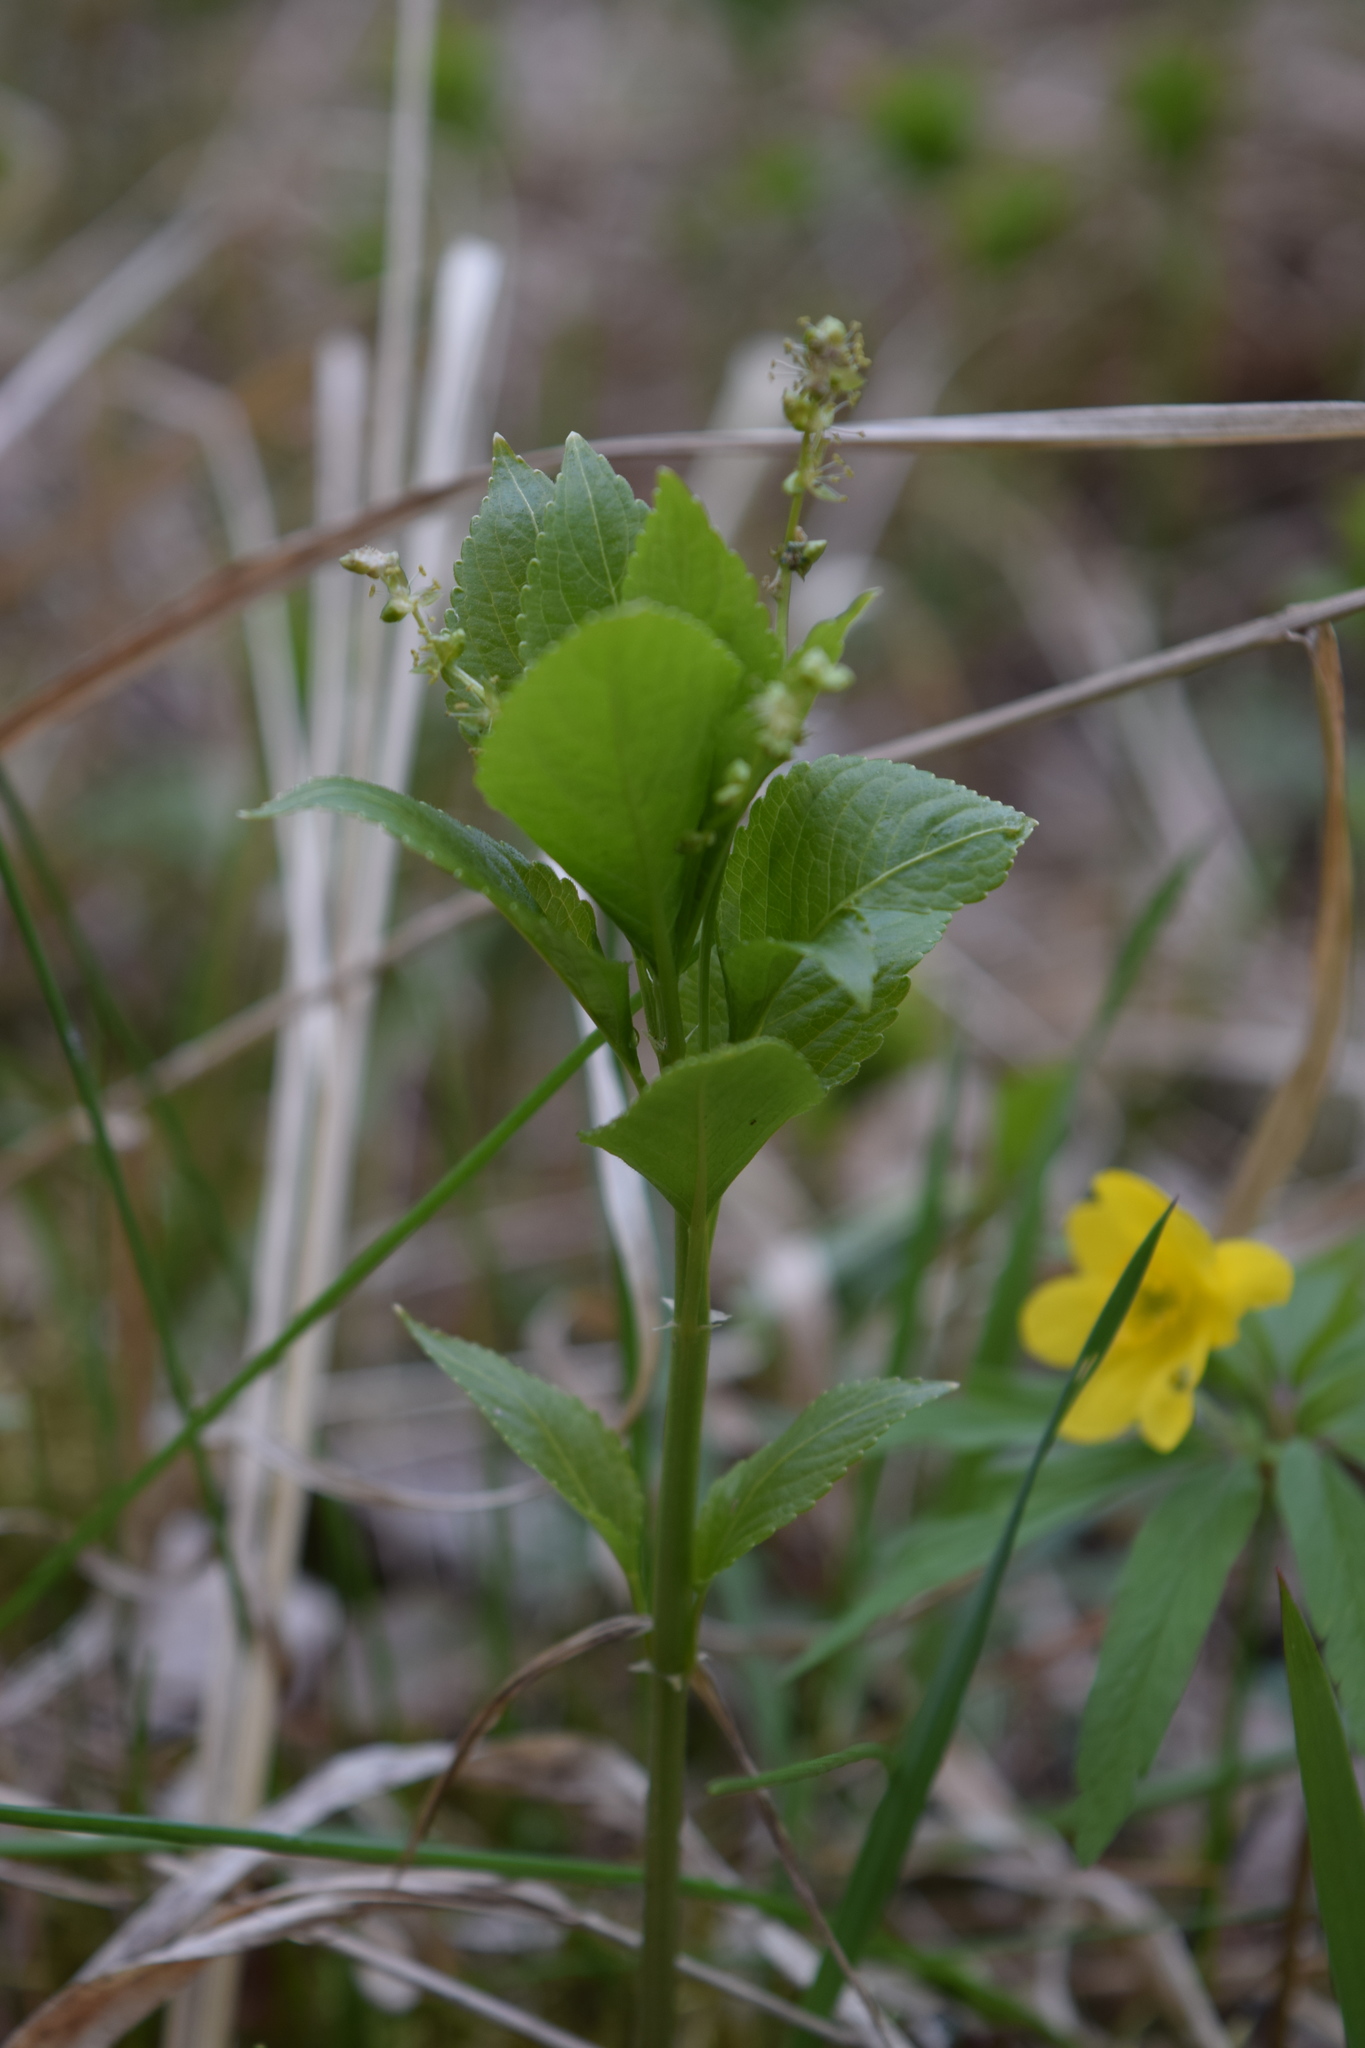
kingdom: Plantae
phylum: Tracheophyta
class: Magnoliopsida
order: Malpighiales
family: Euphorbiaceae
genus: Mercurialis
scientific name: Mercurialis perennis
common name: Dog mercury
